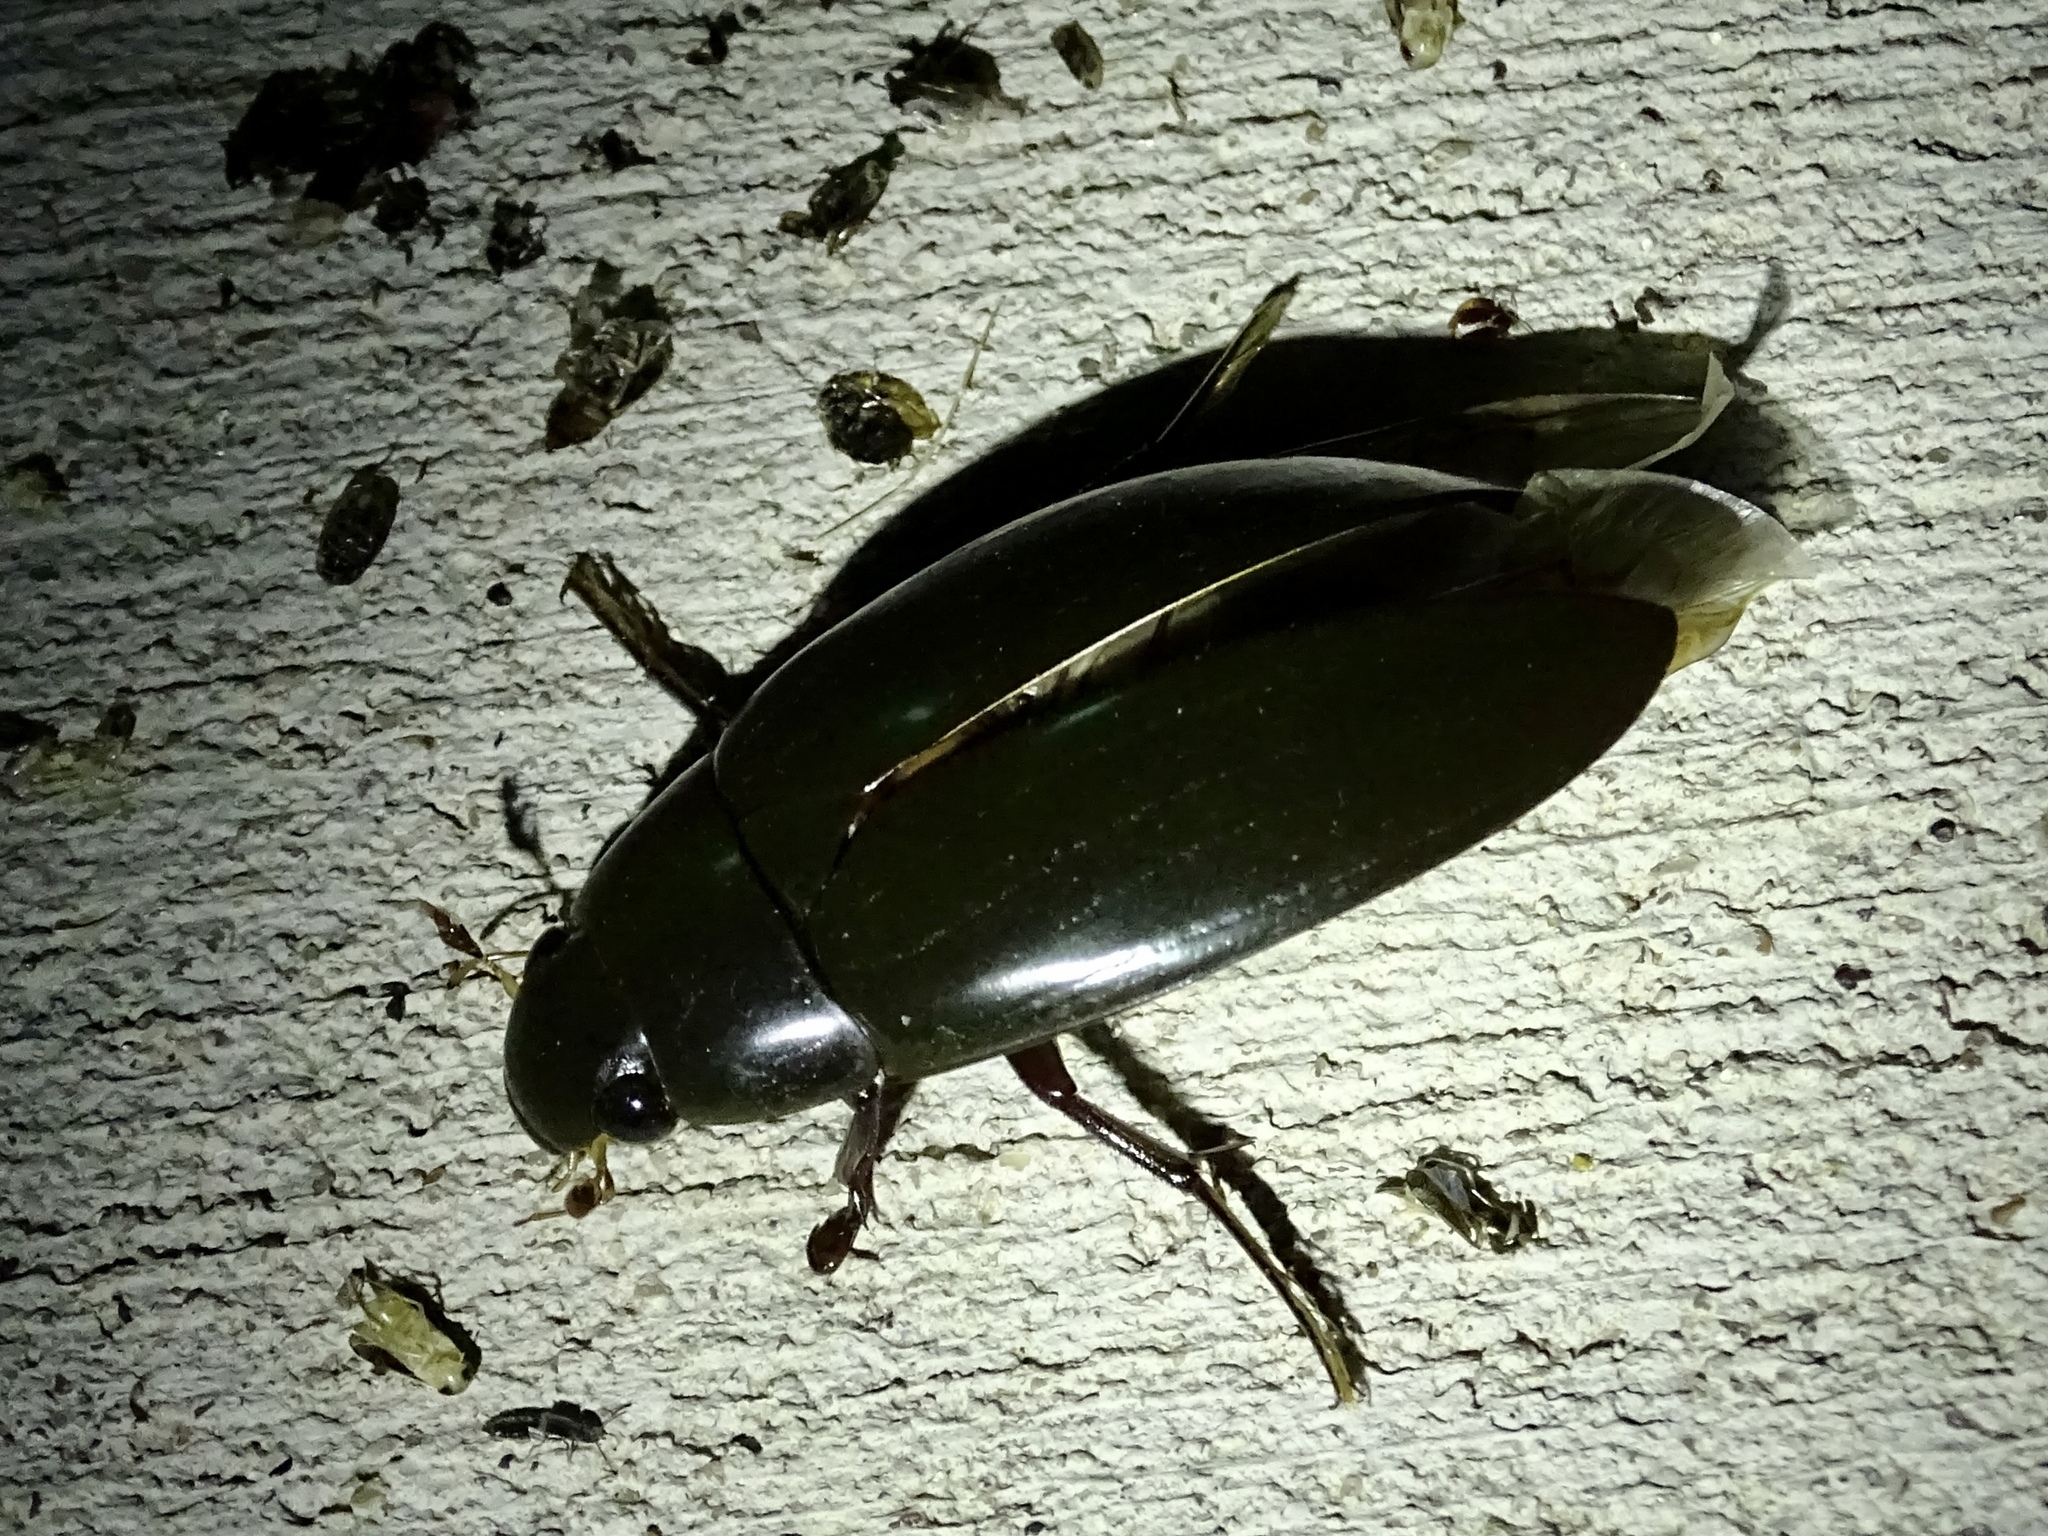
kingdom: Animalia
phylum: Arthropoda
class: Insecta
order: Coleoptera
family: Hydrophilidae
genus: Hydrophilus
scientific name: Hydrophilus triangularis
